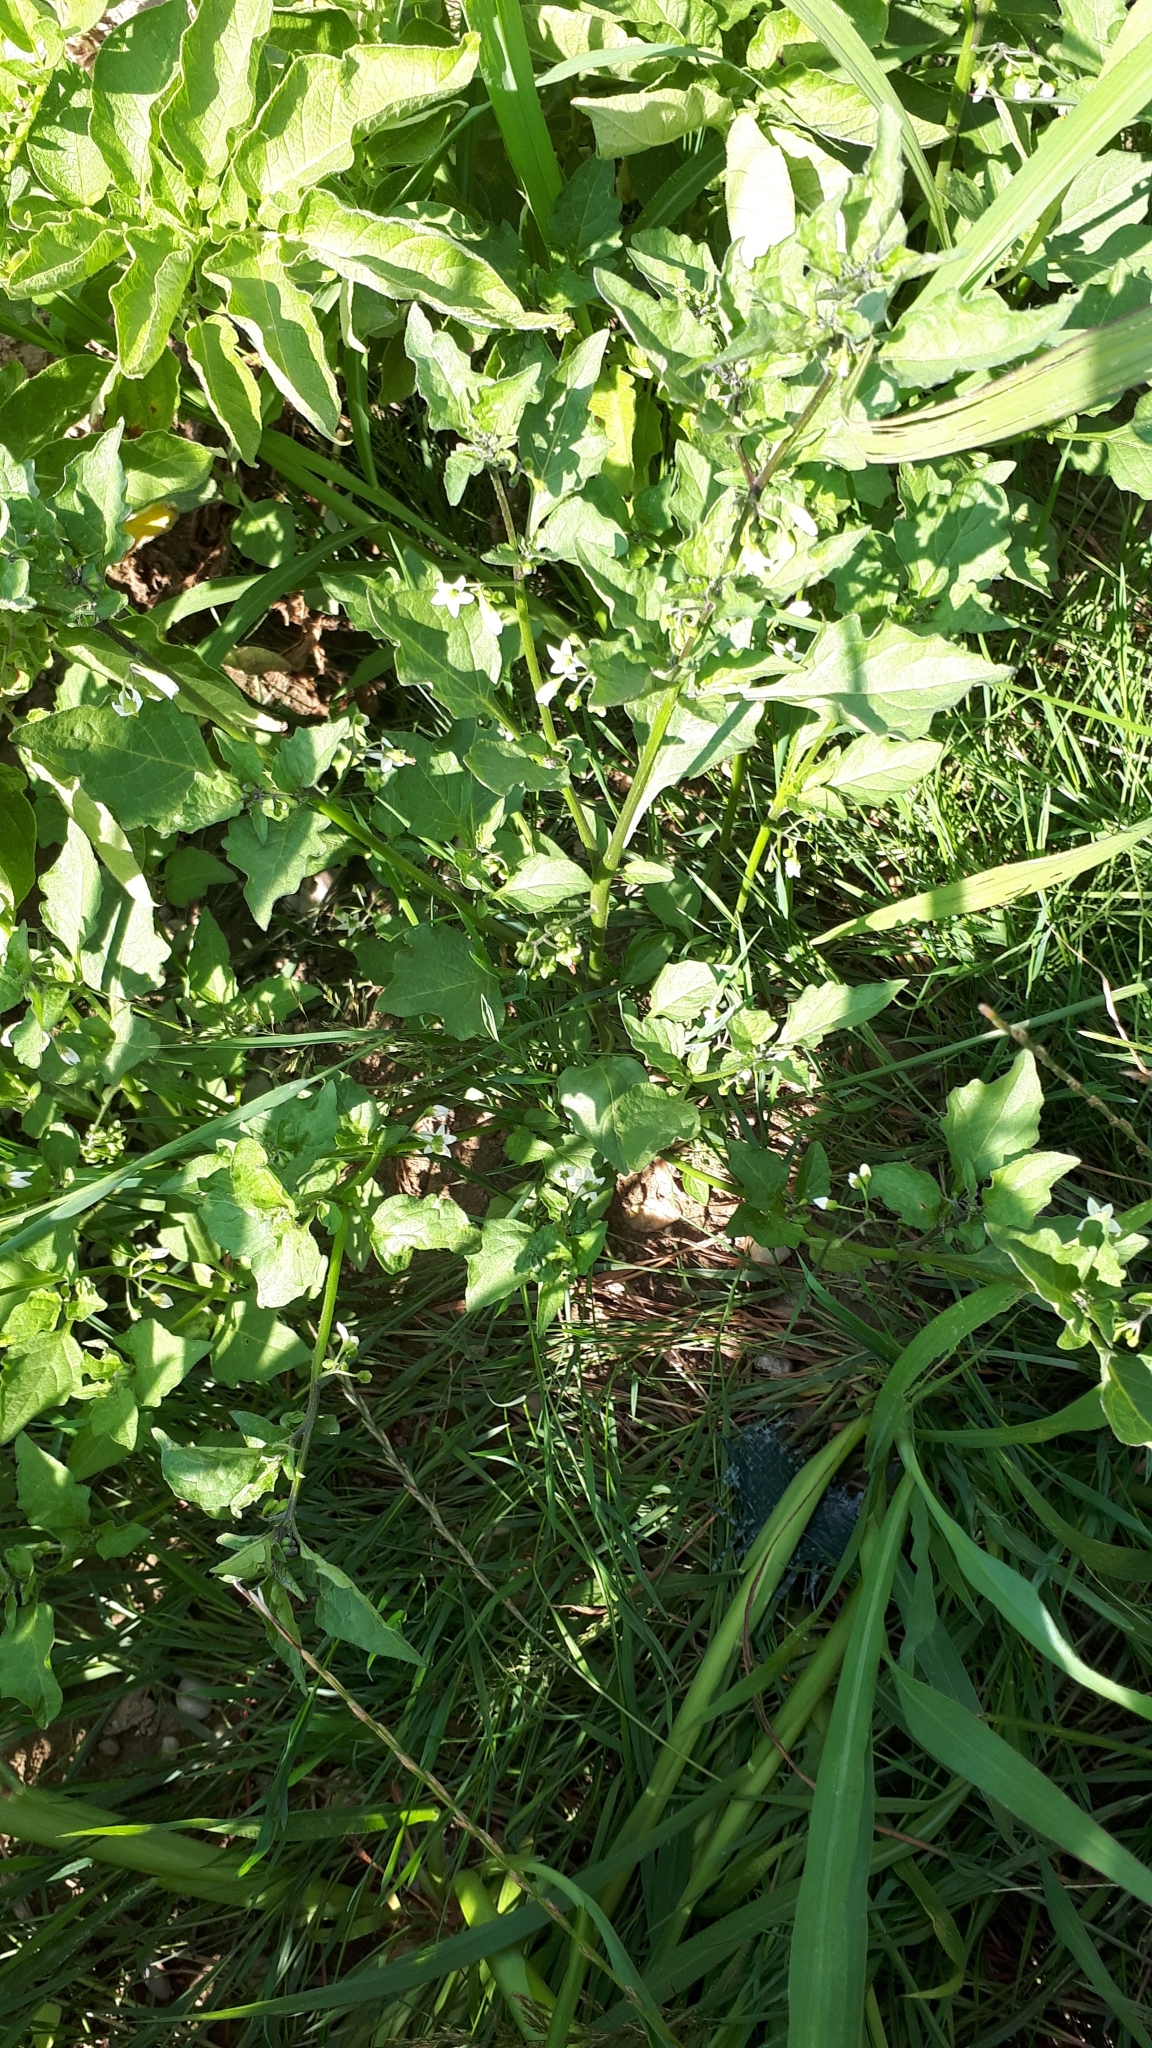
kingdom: Plantae
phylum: Tracheophyta
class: Magnoliopsida
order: Solanales
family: Solanaceae
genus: Solanum
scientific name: Solanum nigrum
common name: Black nightshade
